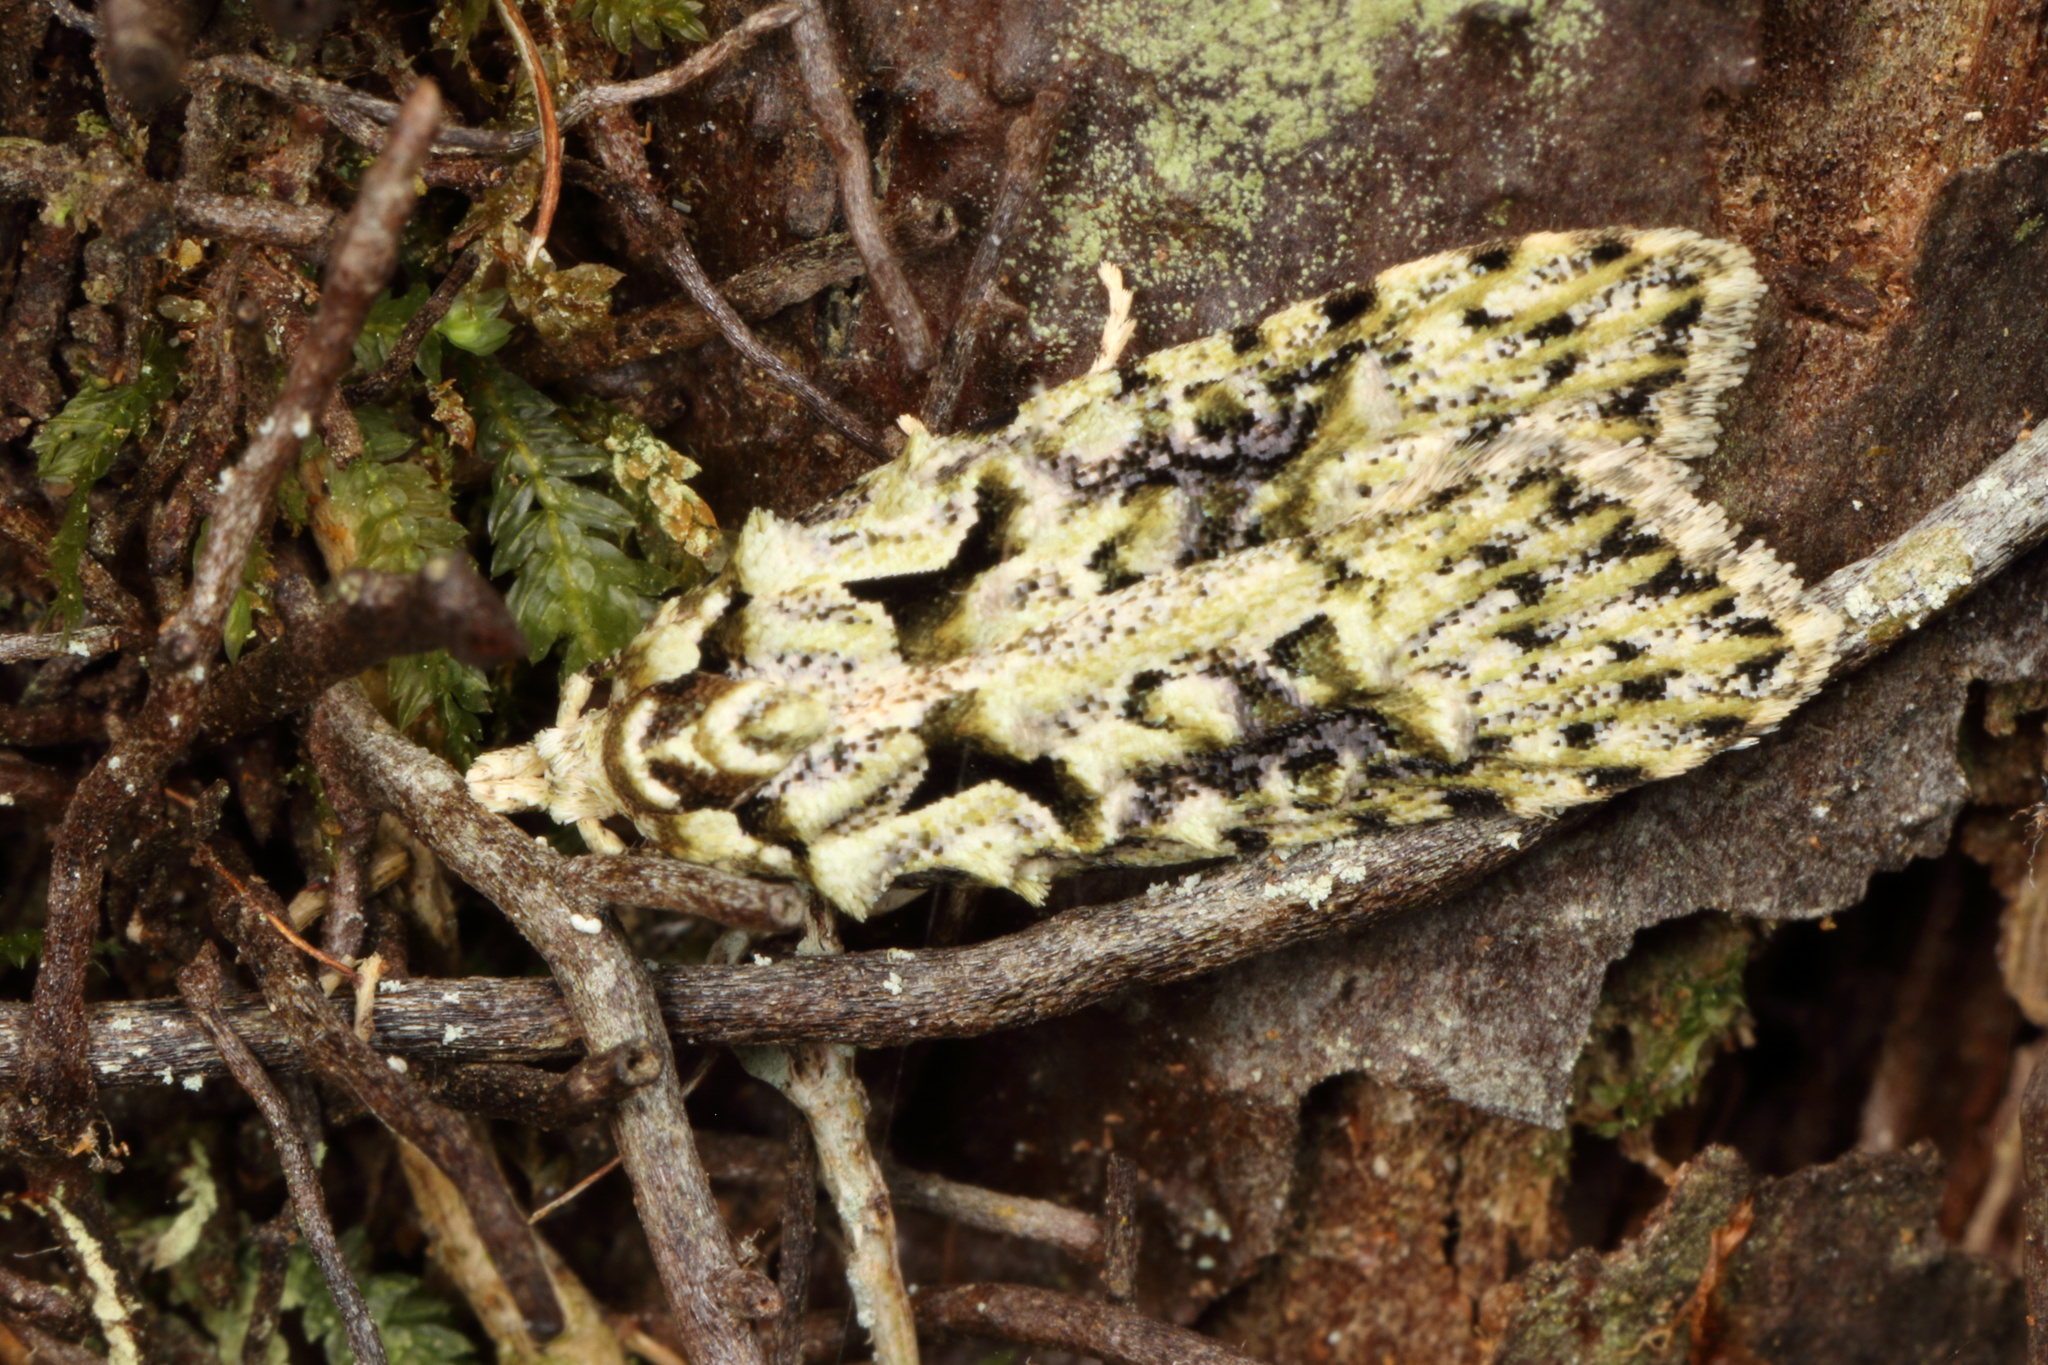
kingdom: Animalia
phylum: Arthropoda
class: Insecta
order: Lepidoptera
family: Carposinidae
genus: Carposina
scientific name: Carposina Heterocrossa eriphylla
